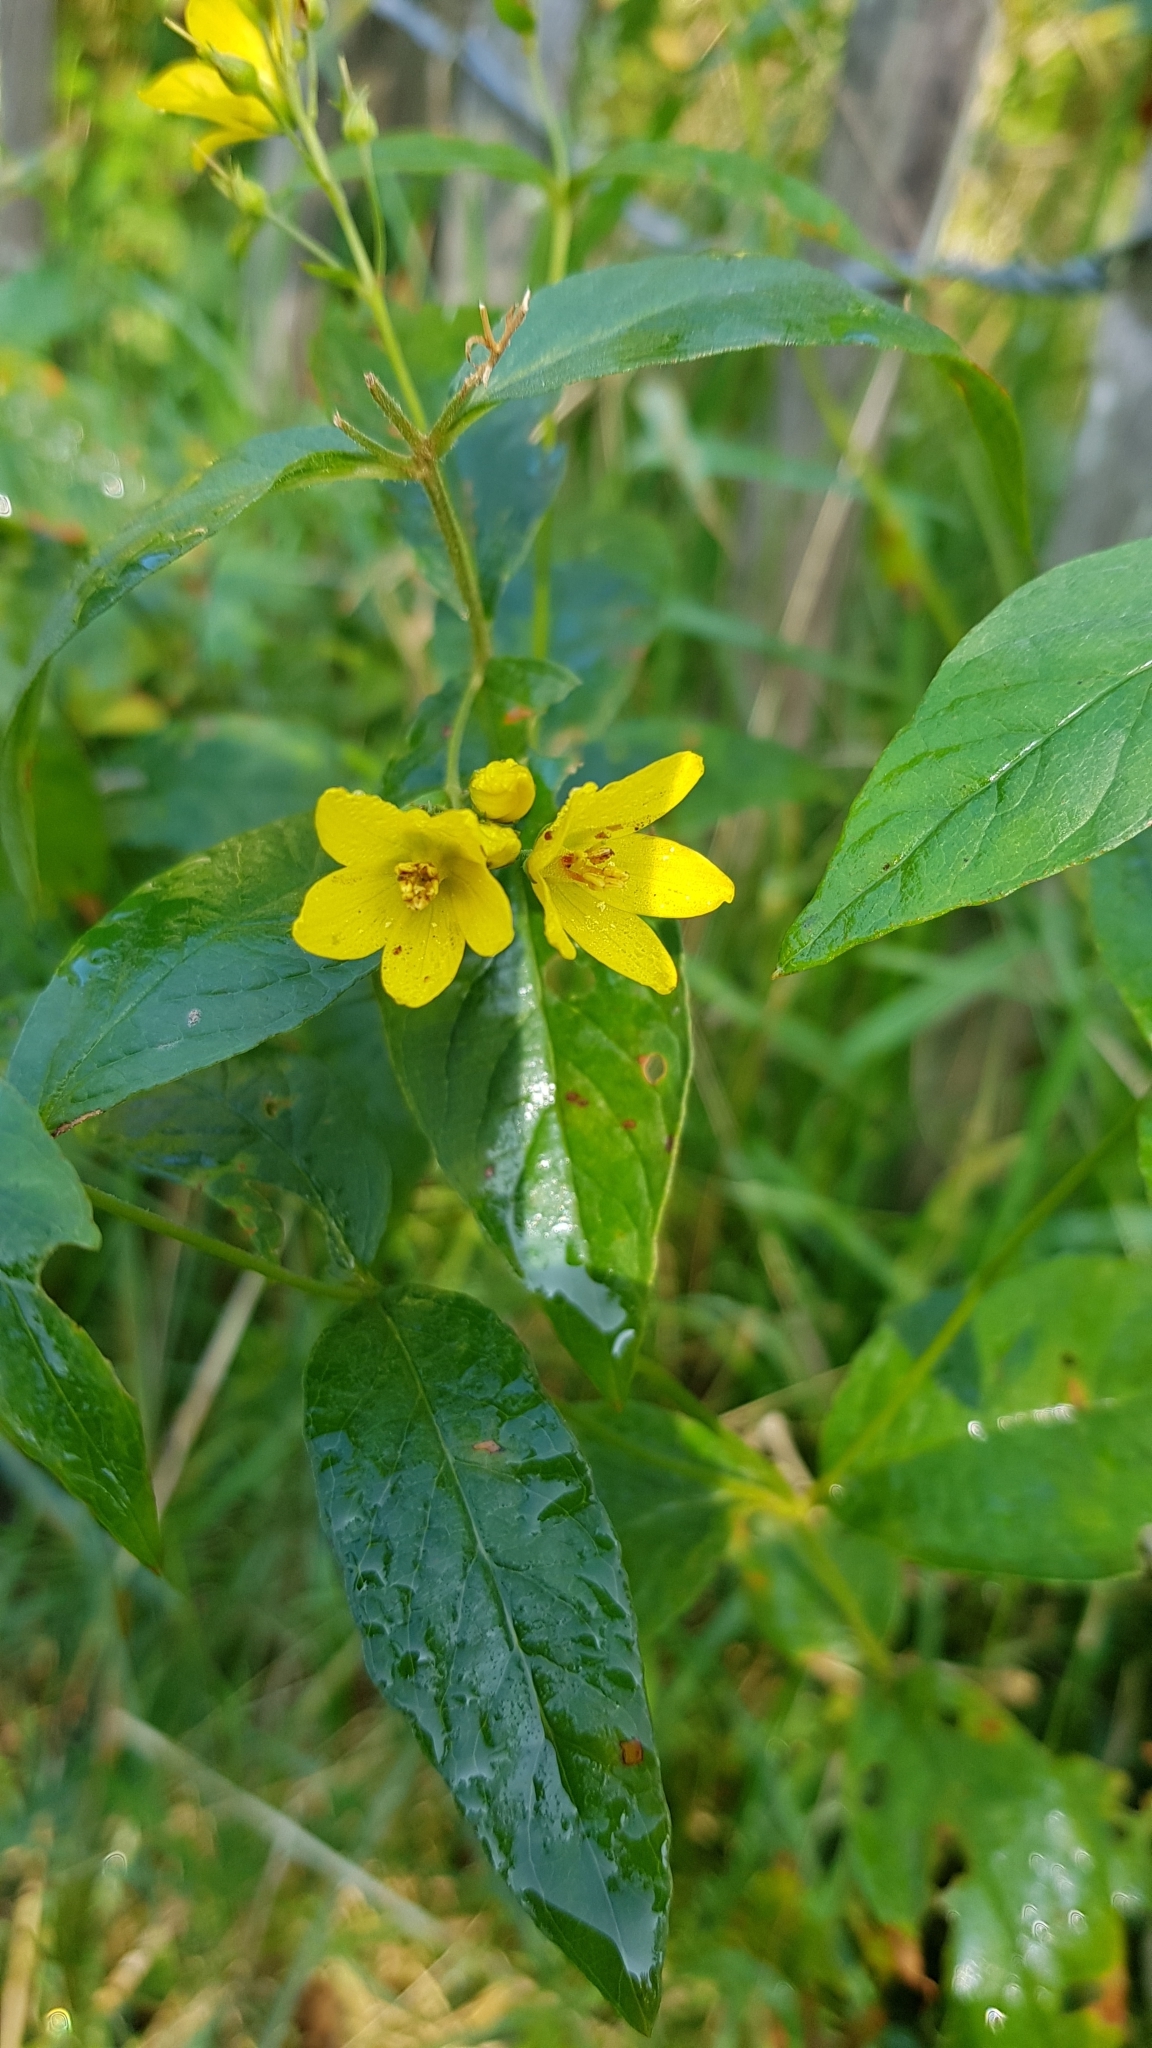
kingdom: Plantae
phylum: Tracheophyta
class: Magnoliopsida
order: Ericales
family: Primulaceae
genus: Lysimachia
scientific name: Lysimachia vulgaris
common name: Yellow loosestrife
